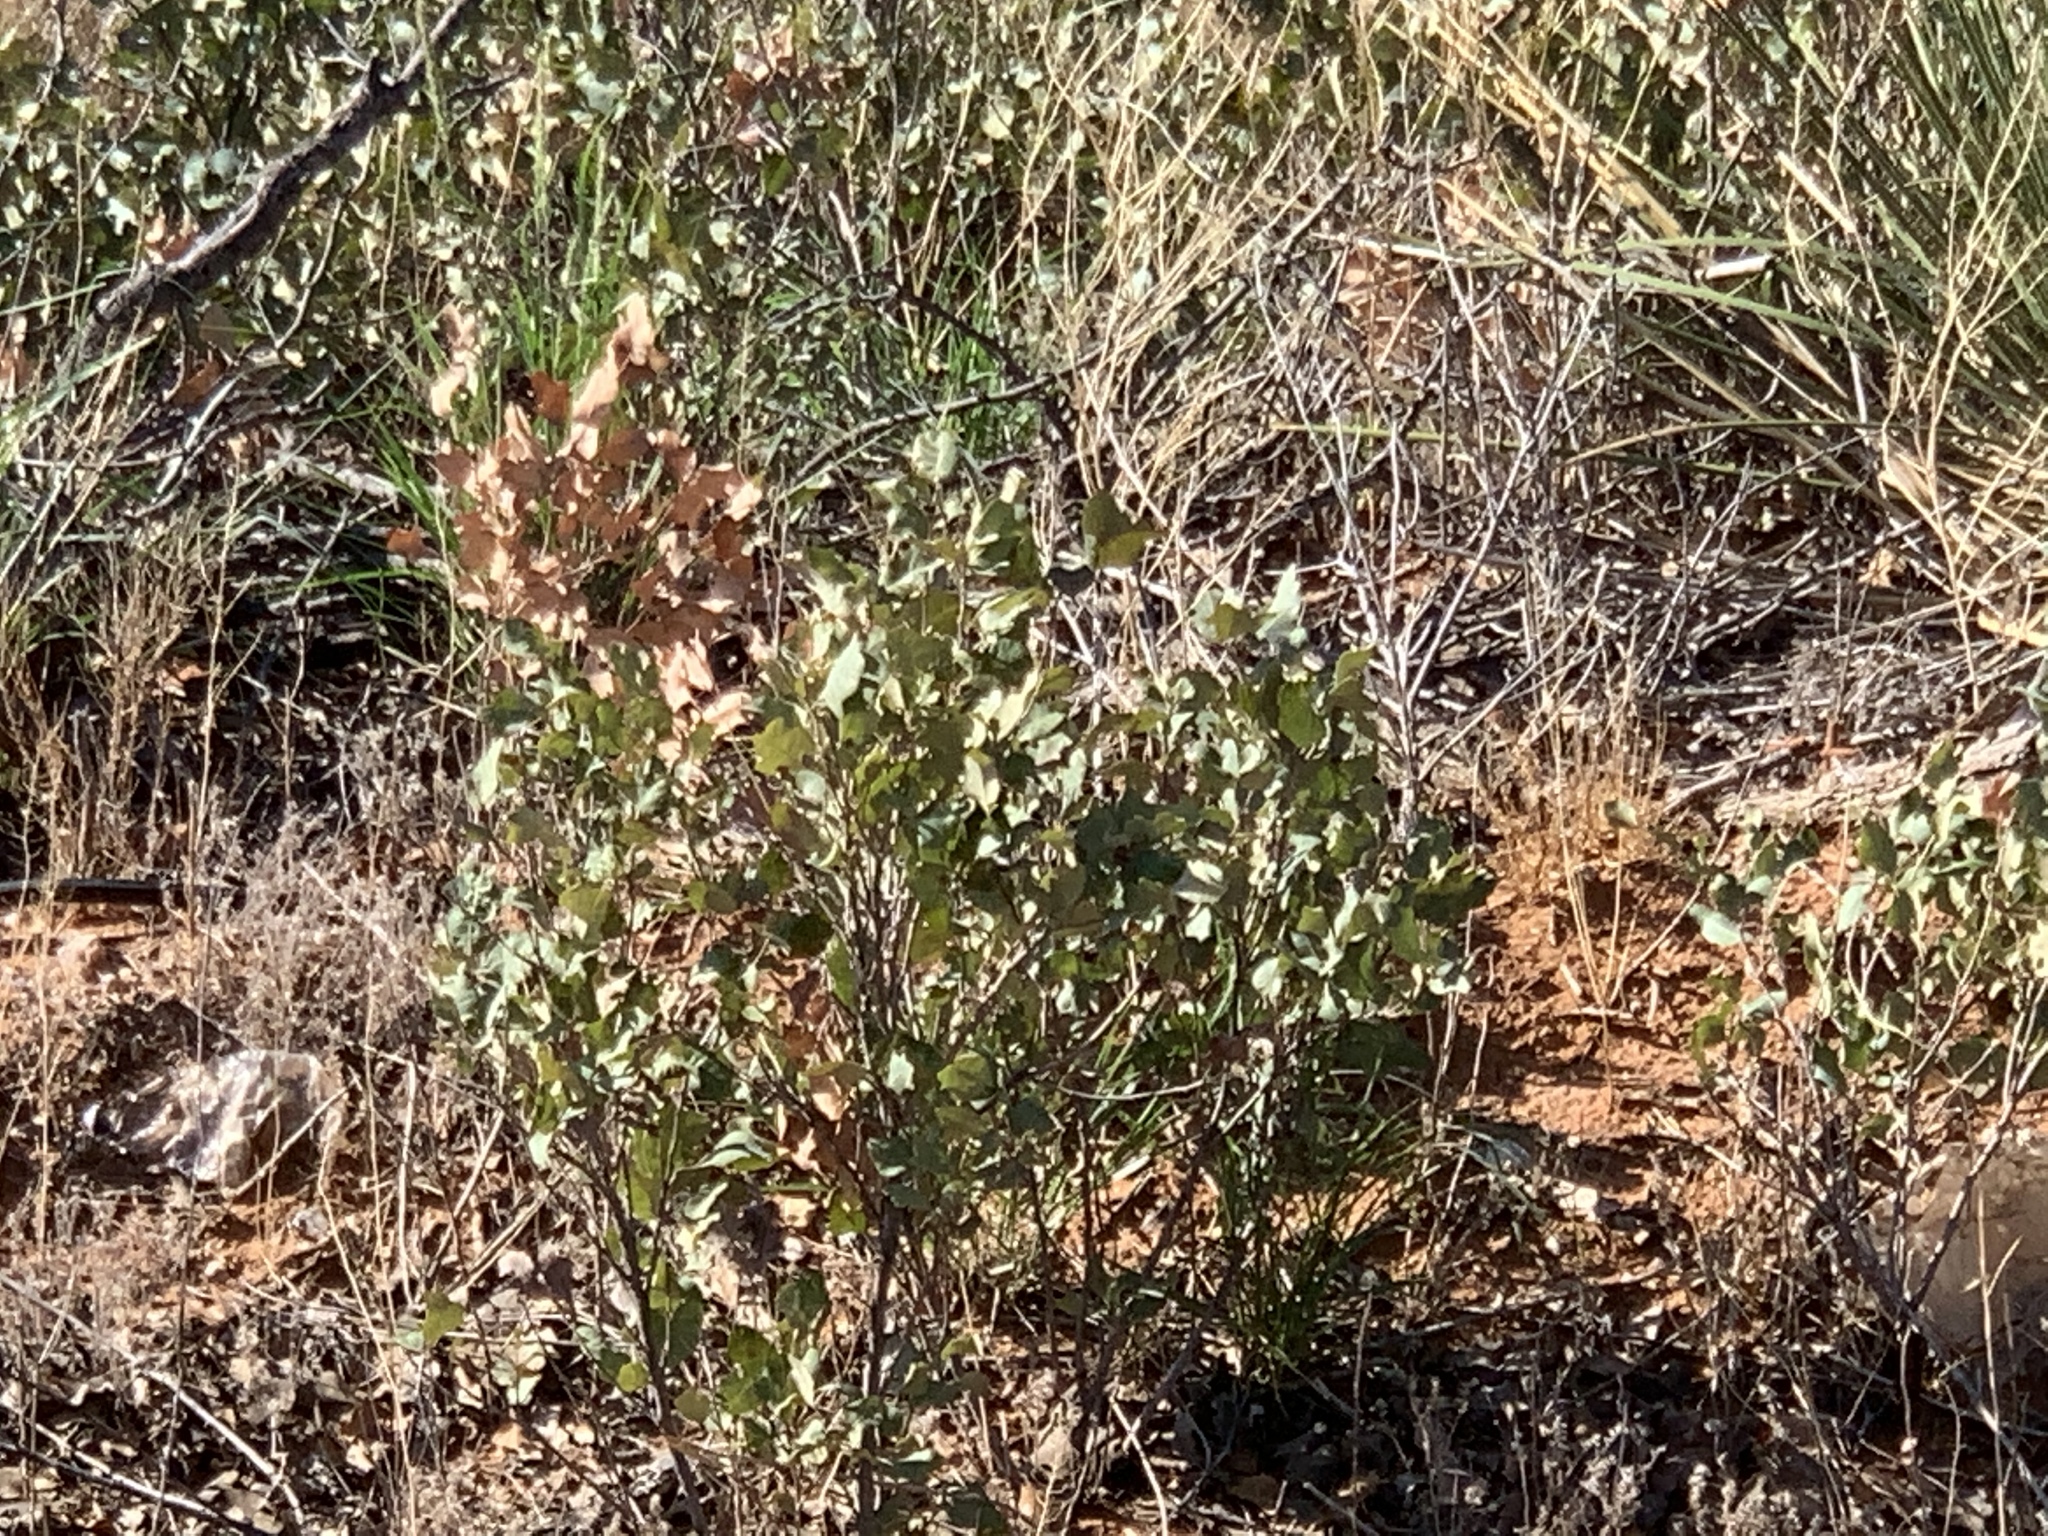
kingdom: Plantae
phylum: Tracheophyta
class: Magnoliopsida
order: Fagales
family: Fagaceae
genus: Quercus
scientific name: Quercus havardii
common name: Shinnery oak
